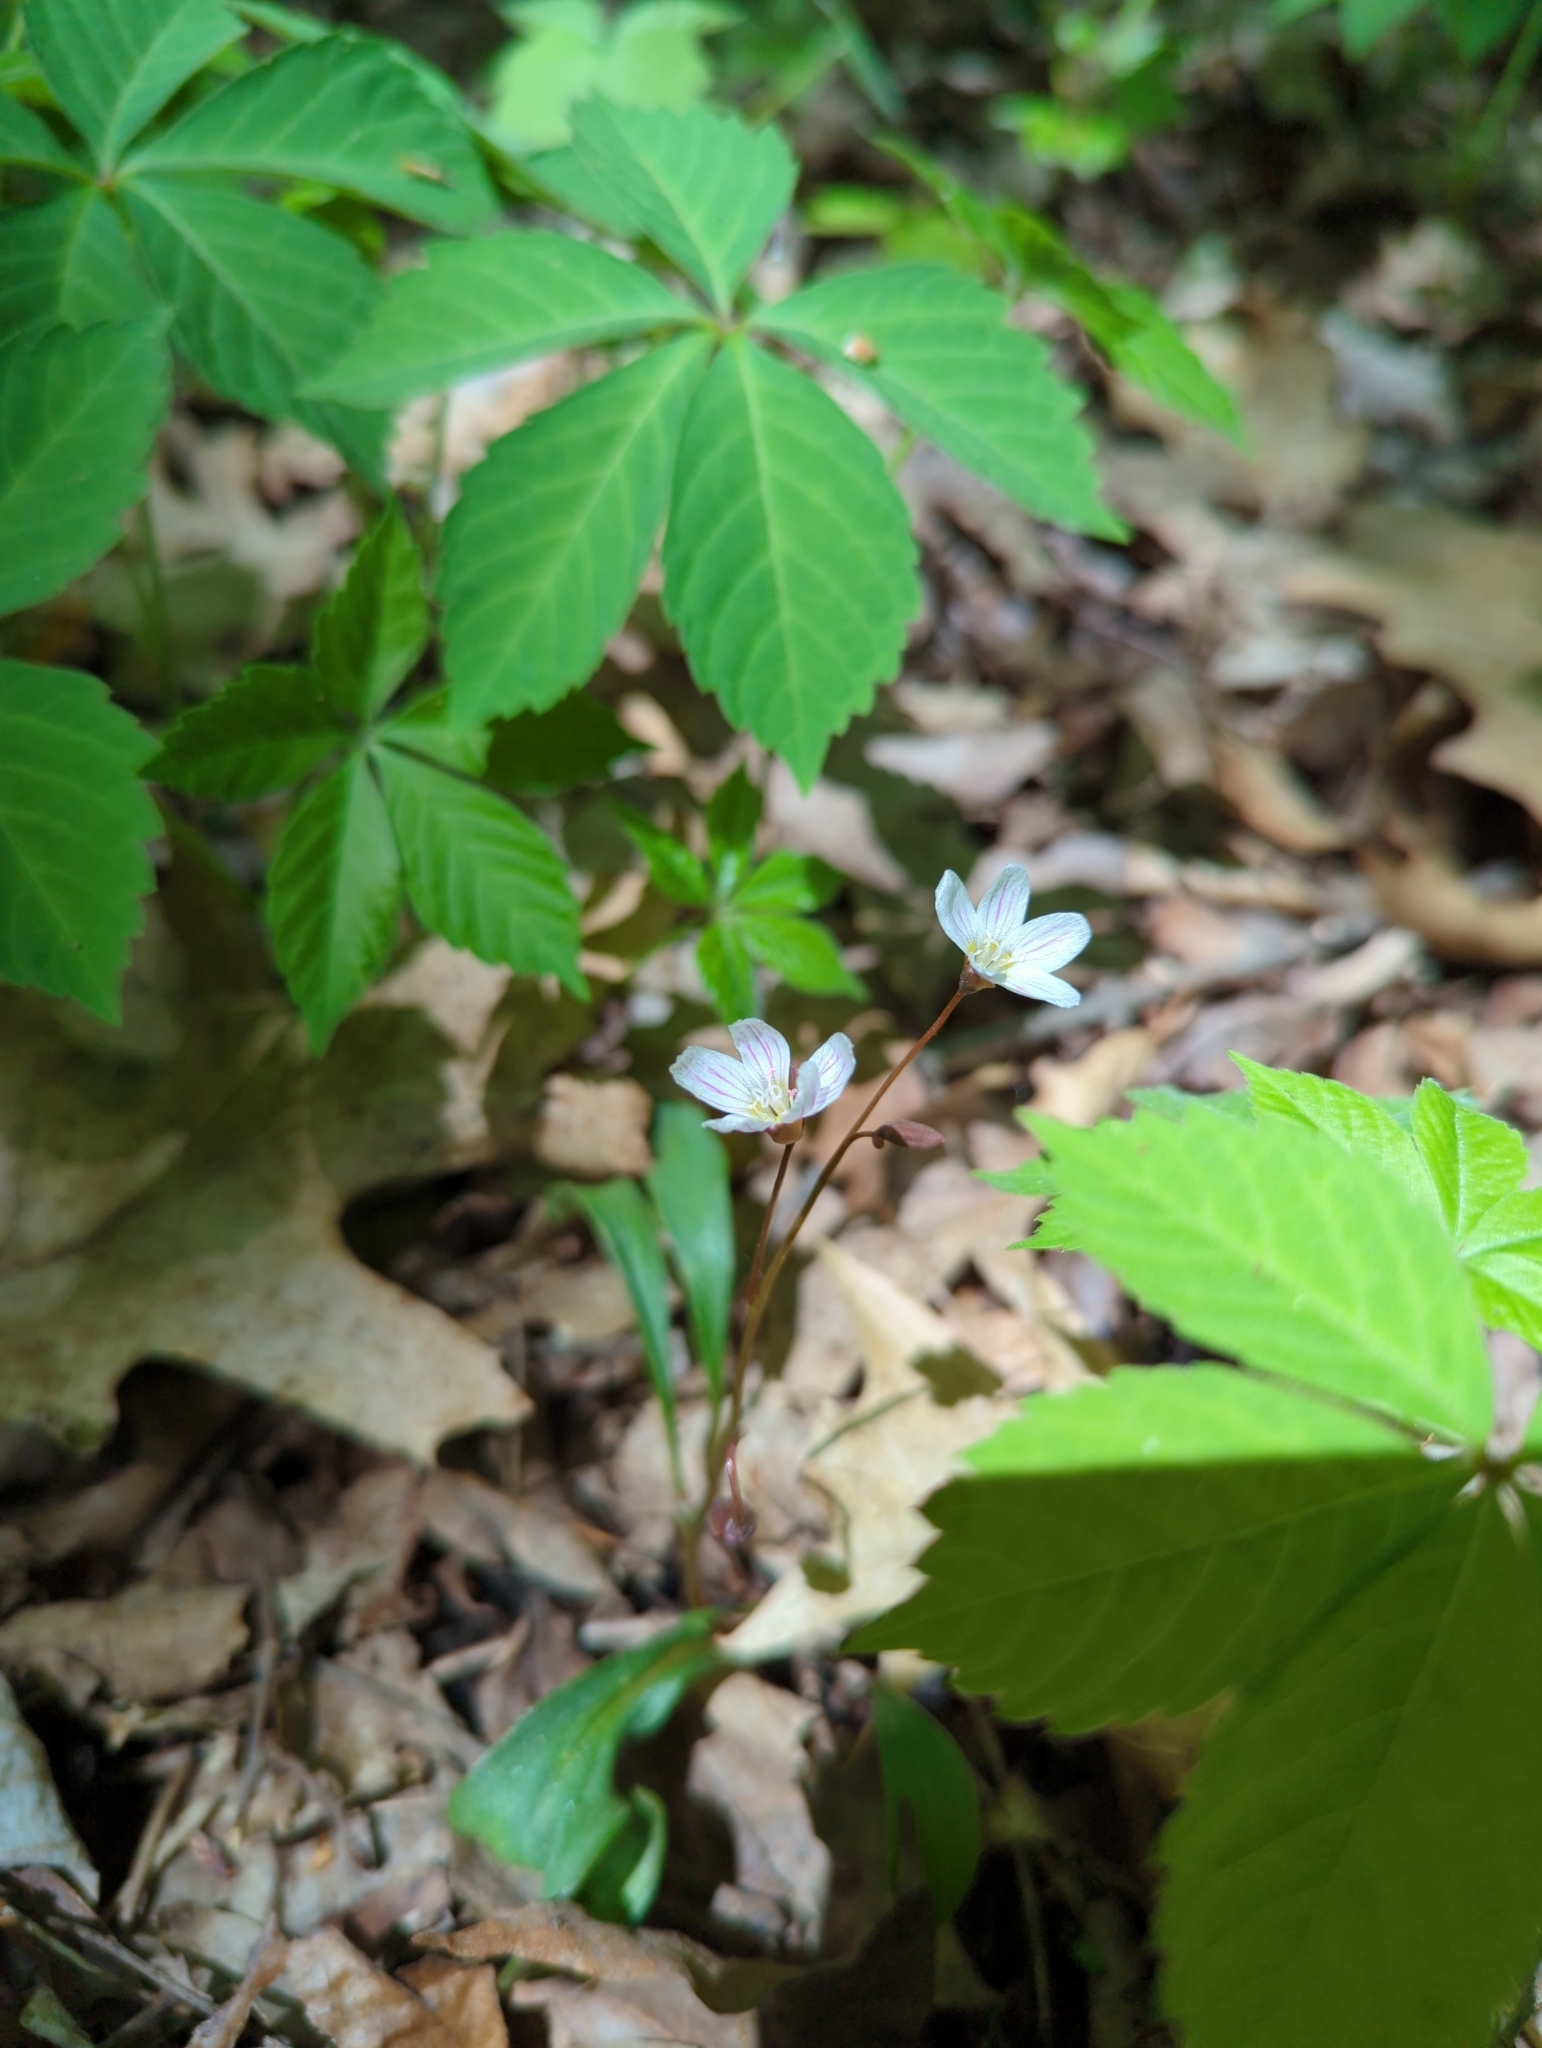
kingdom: Plantae
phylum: Tracheophyta
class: Magnoliopsida
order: Caryophyllales
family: Montiaceae
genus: Claytonia
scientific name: Claytonia virginica
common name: Virginia springbeauty
